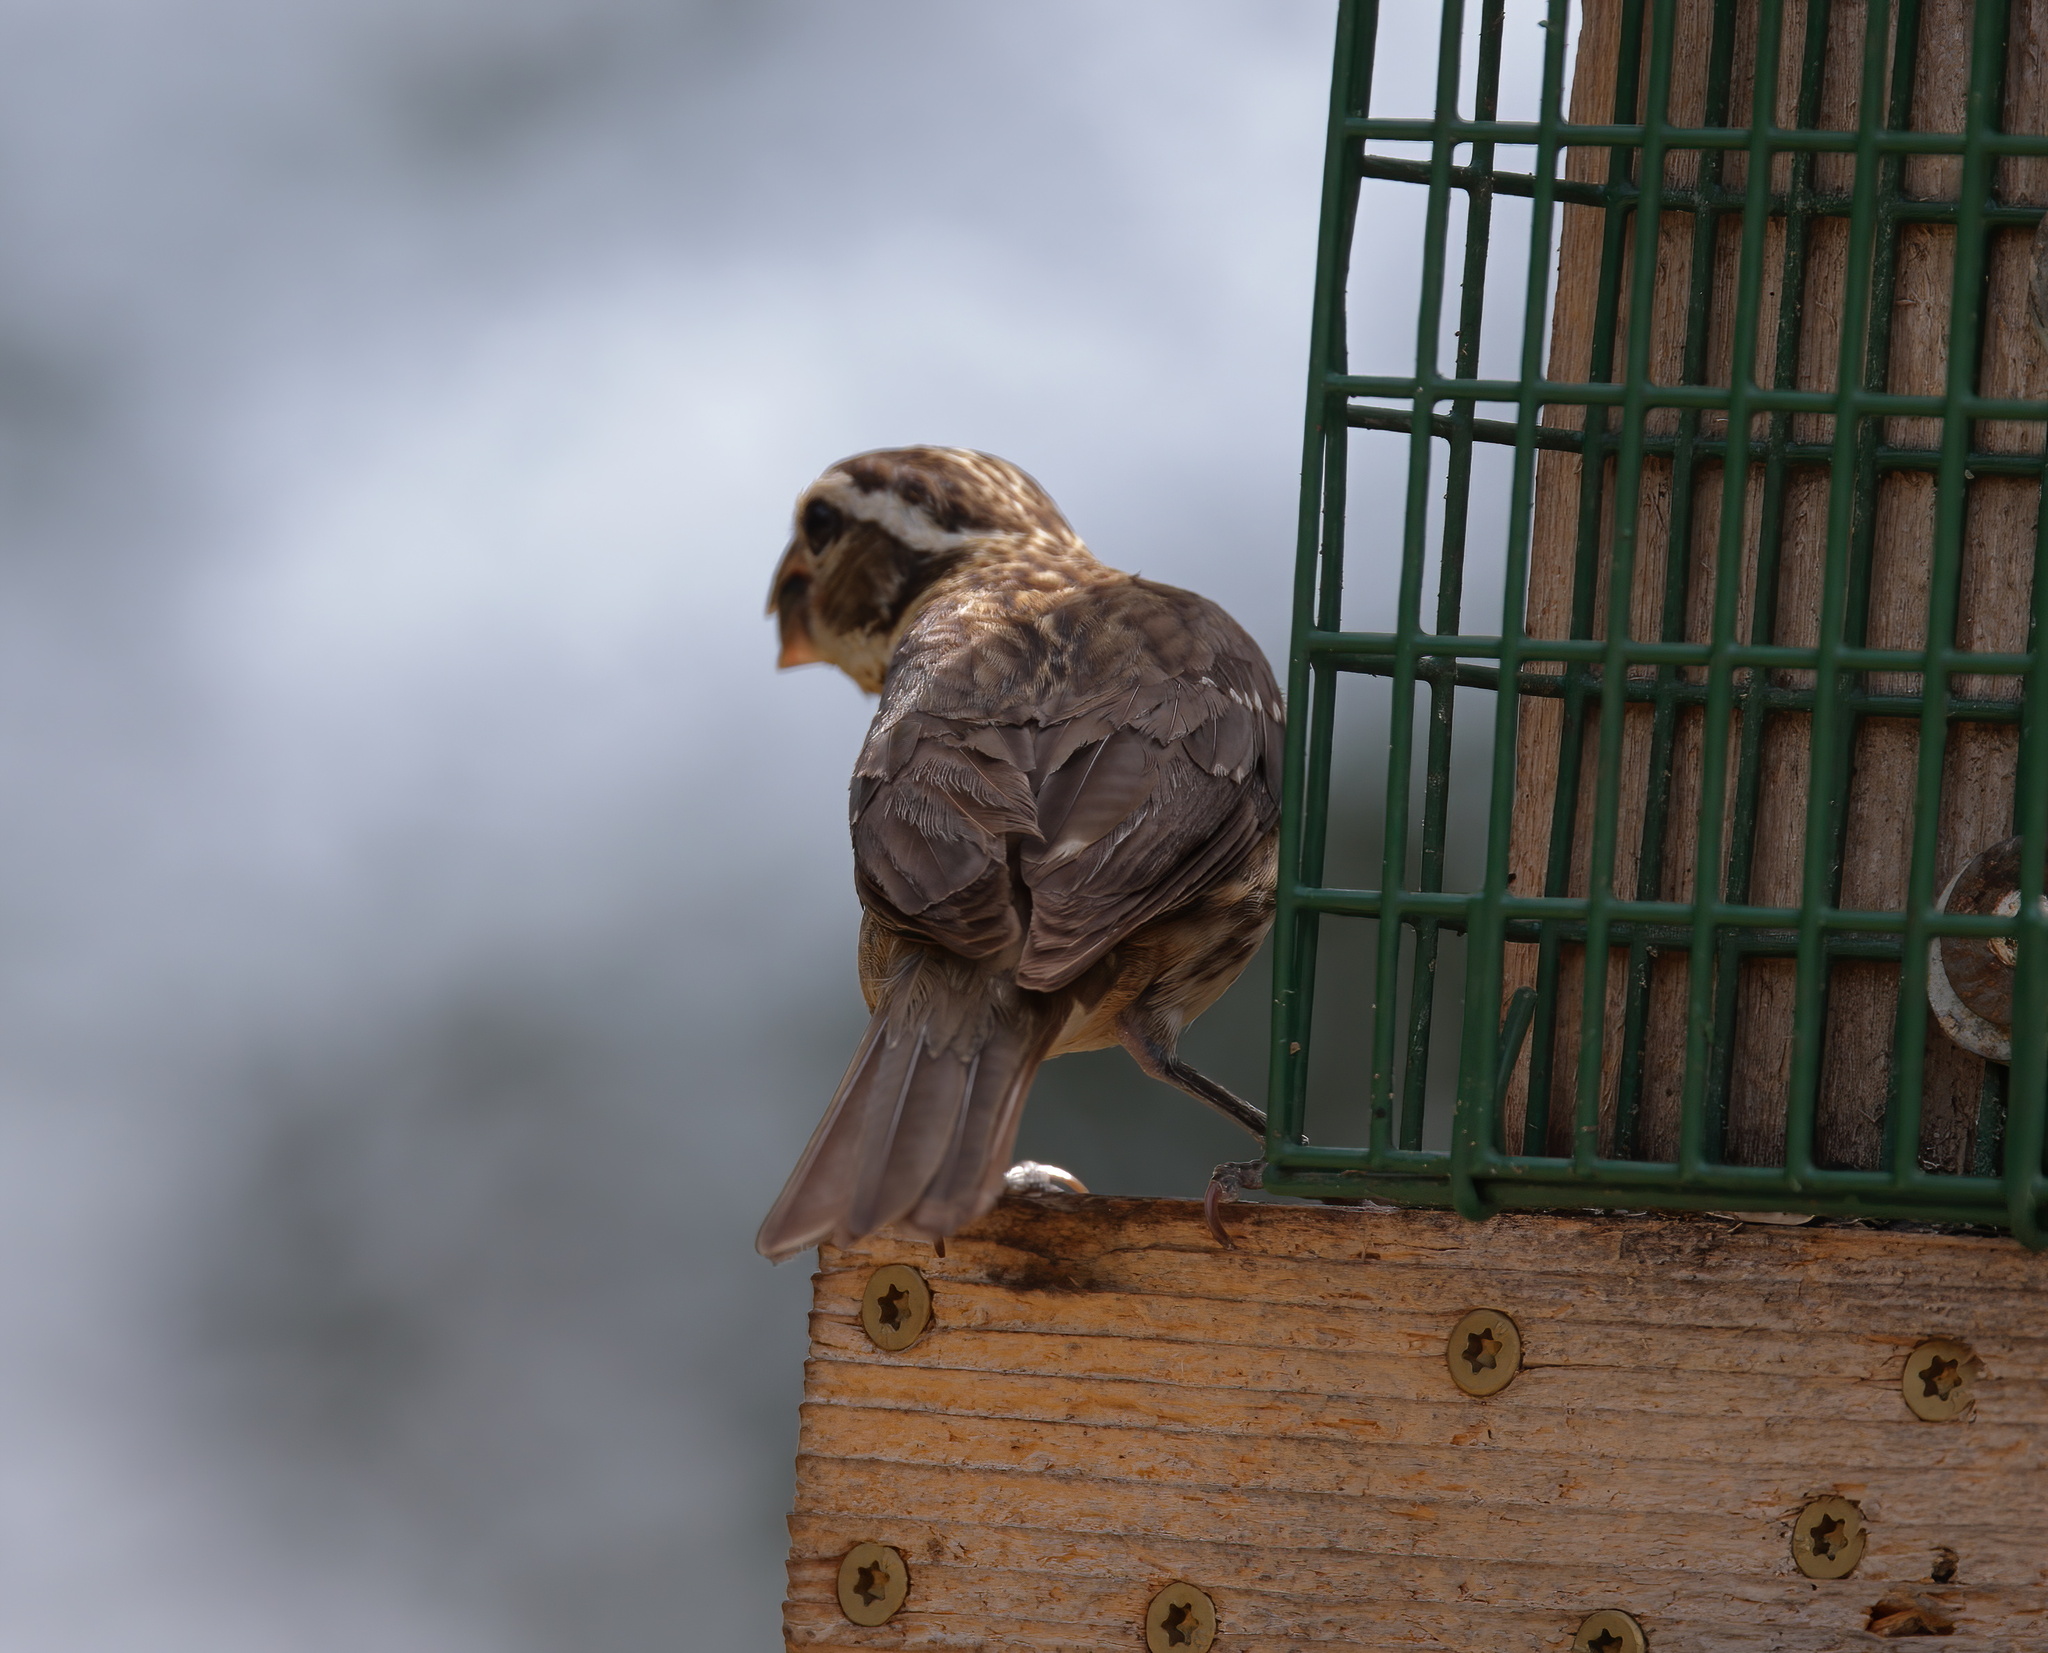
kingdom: Animalia
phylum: Chordata
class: Aves
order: Passeriformes
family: Cardinalidae
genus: Pheucticus
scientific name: Pheucticus ludovicianus
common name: Rose-breasted grosbeak
